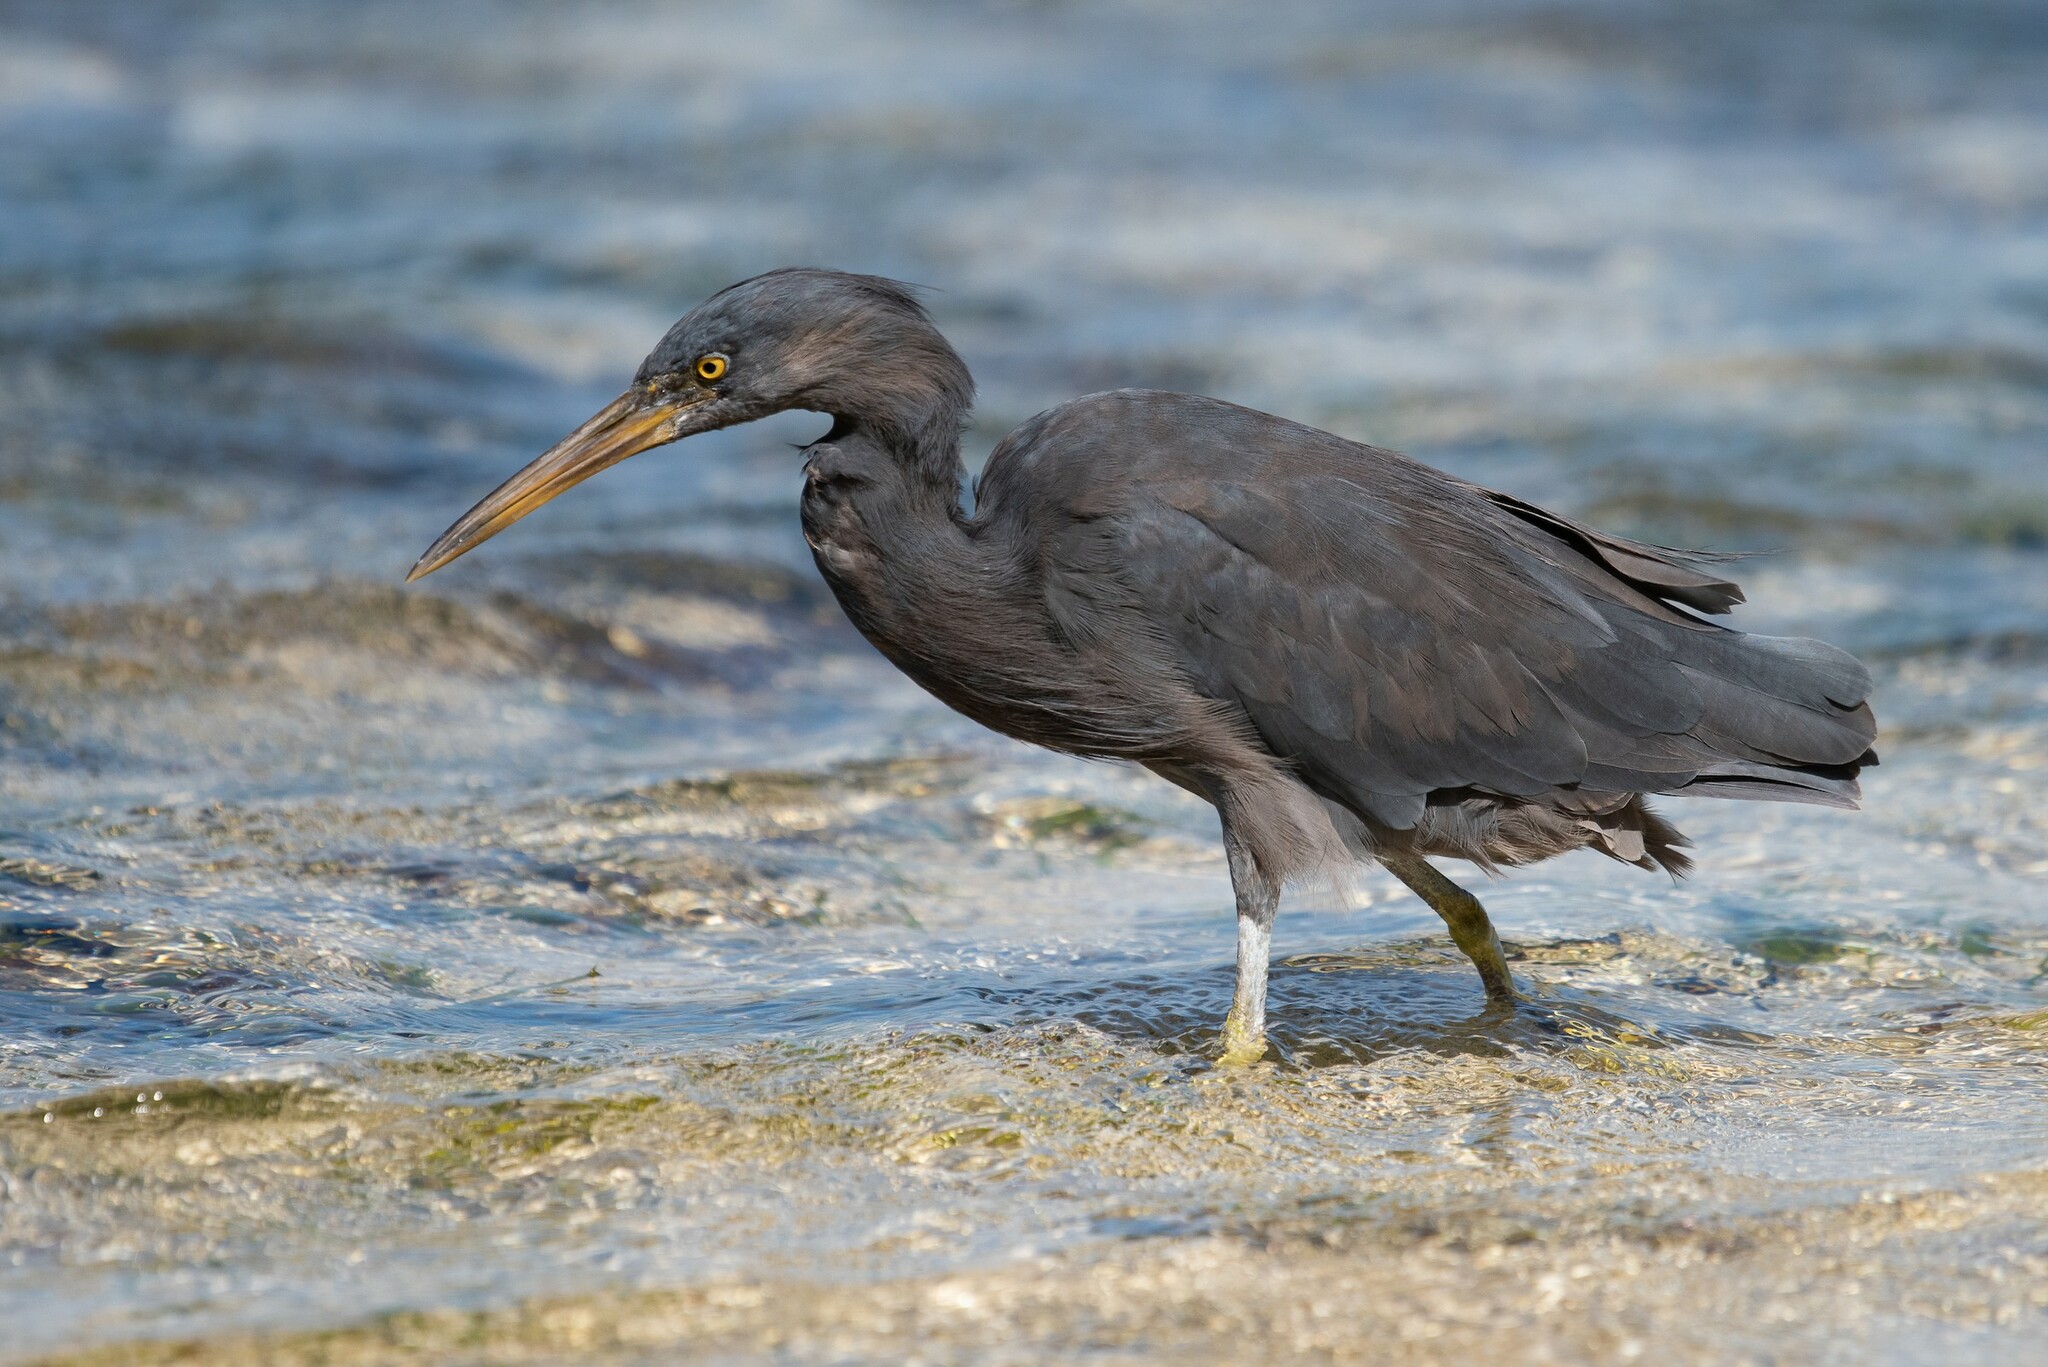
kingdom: Animalia
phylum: Chordata
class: Aves
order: Pelecaniformes
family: Ardeidae
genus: Egretta
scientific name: Egretta sacra
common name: Pacific reef heron
